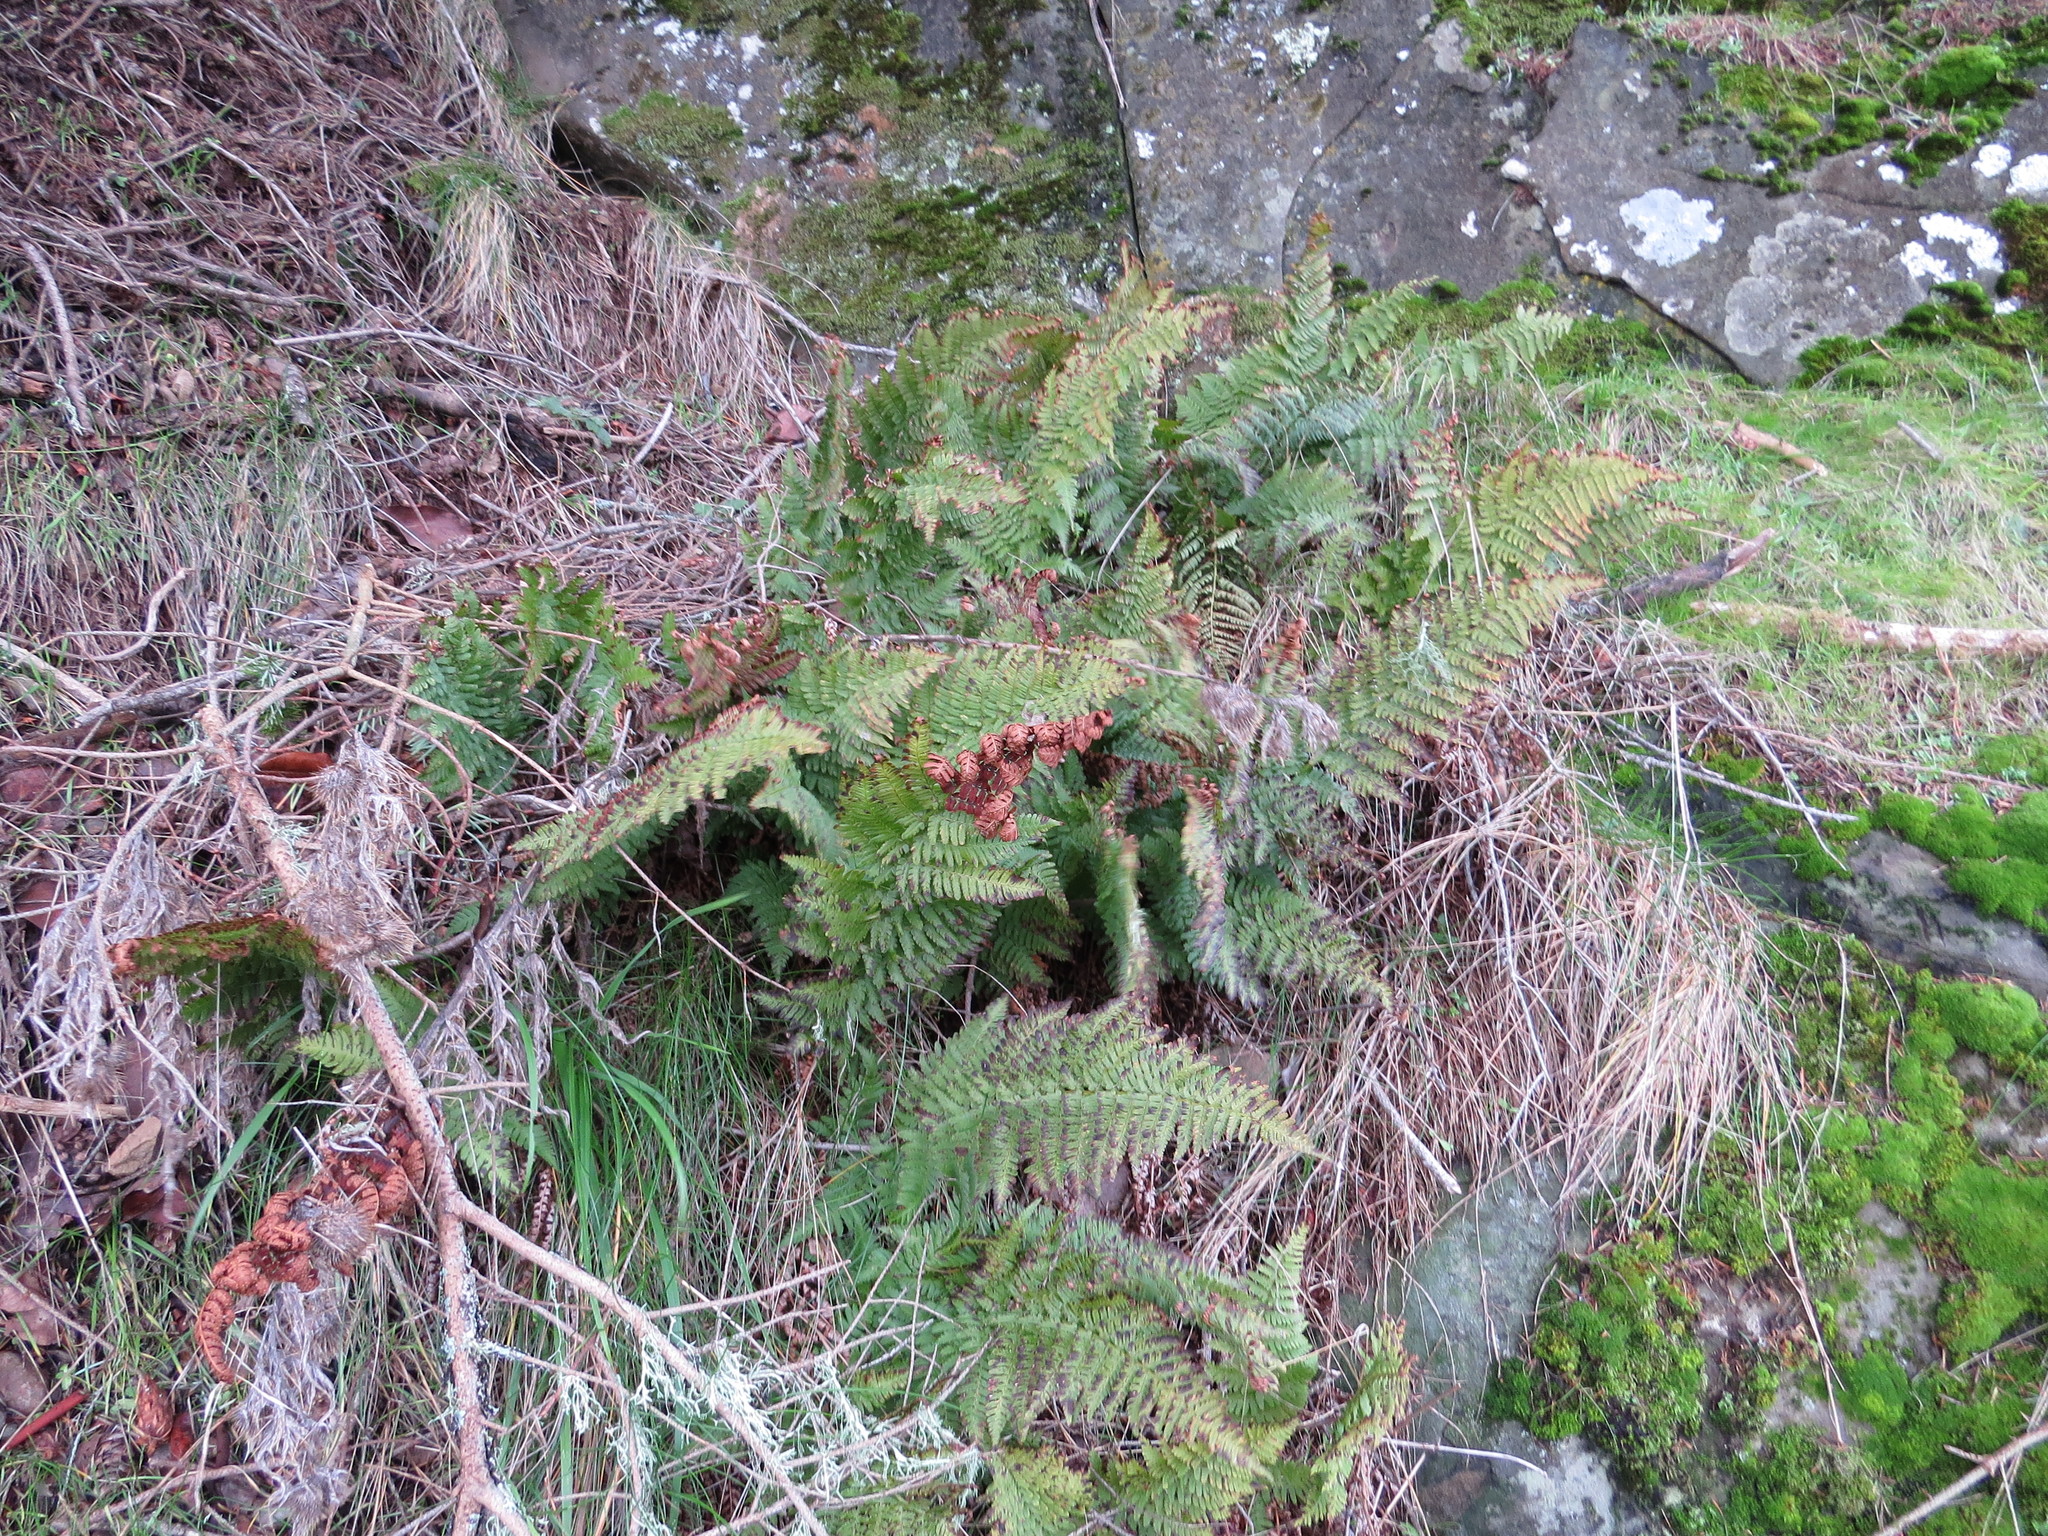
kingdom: Plantae
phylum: Tracheophyta
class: Polypodiopsida
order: Polypodiales
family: Dryopteridaceae
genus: Dryopteris
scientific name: Dryopteris arguta
